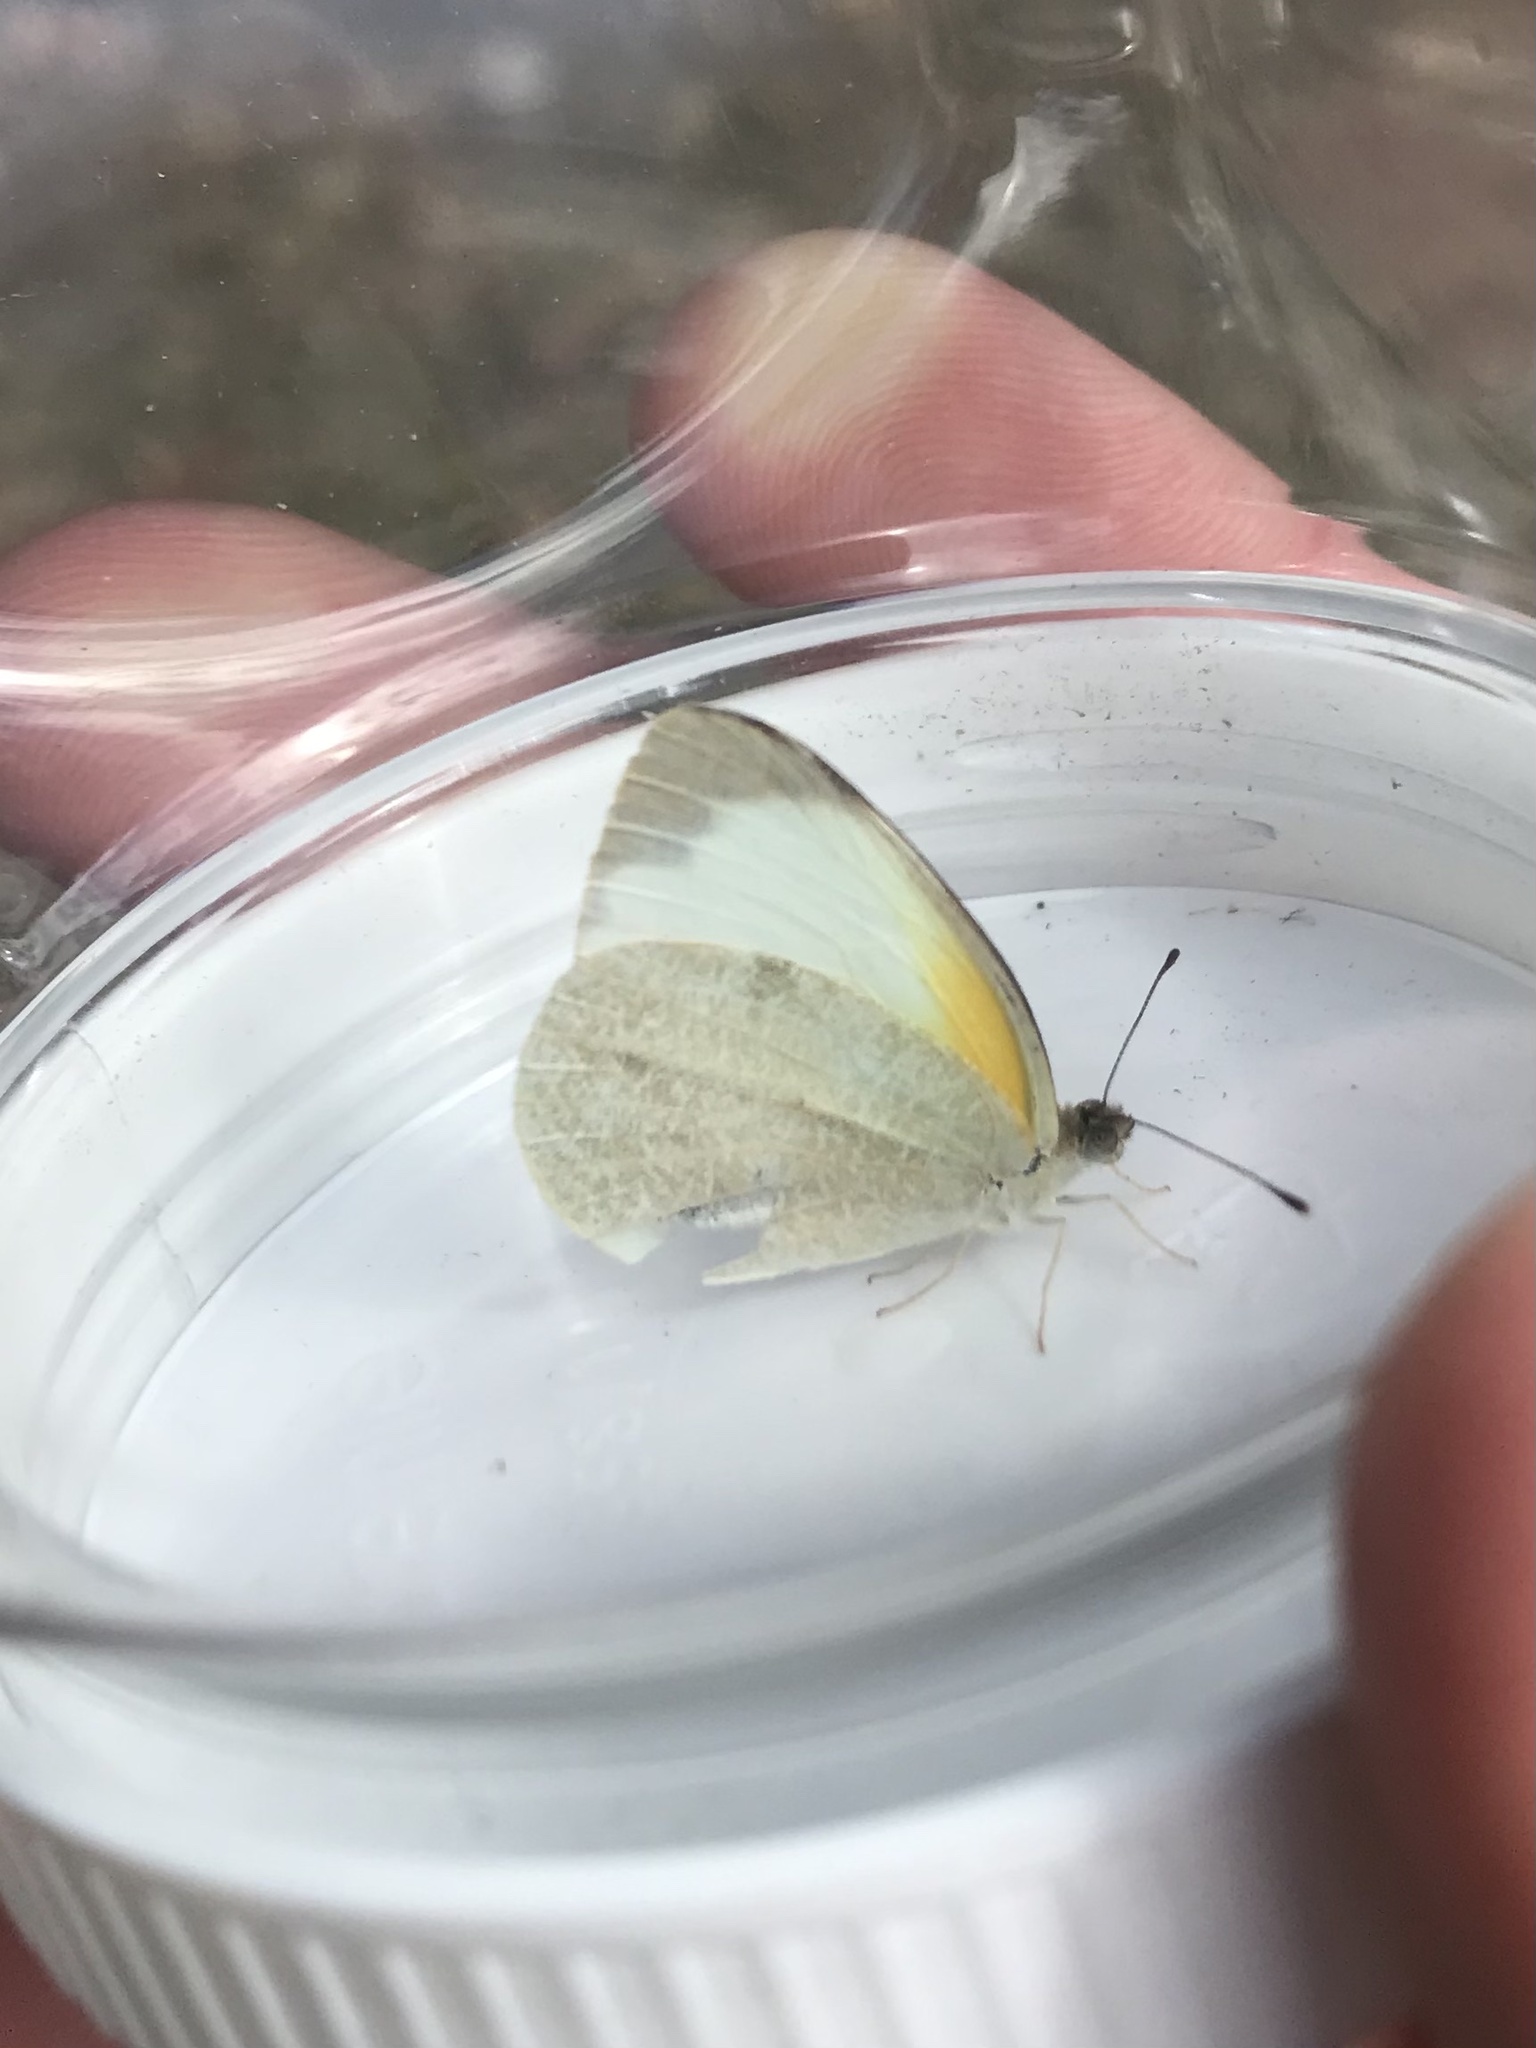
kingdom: Animalia
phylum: Arthropoda
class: Insecta
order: Lepidoptera
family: Pieridae
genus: Elodina
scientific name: Elodina parthia
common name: Chalk white
